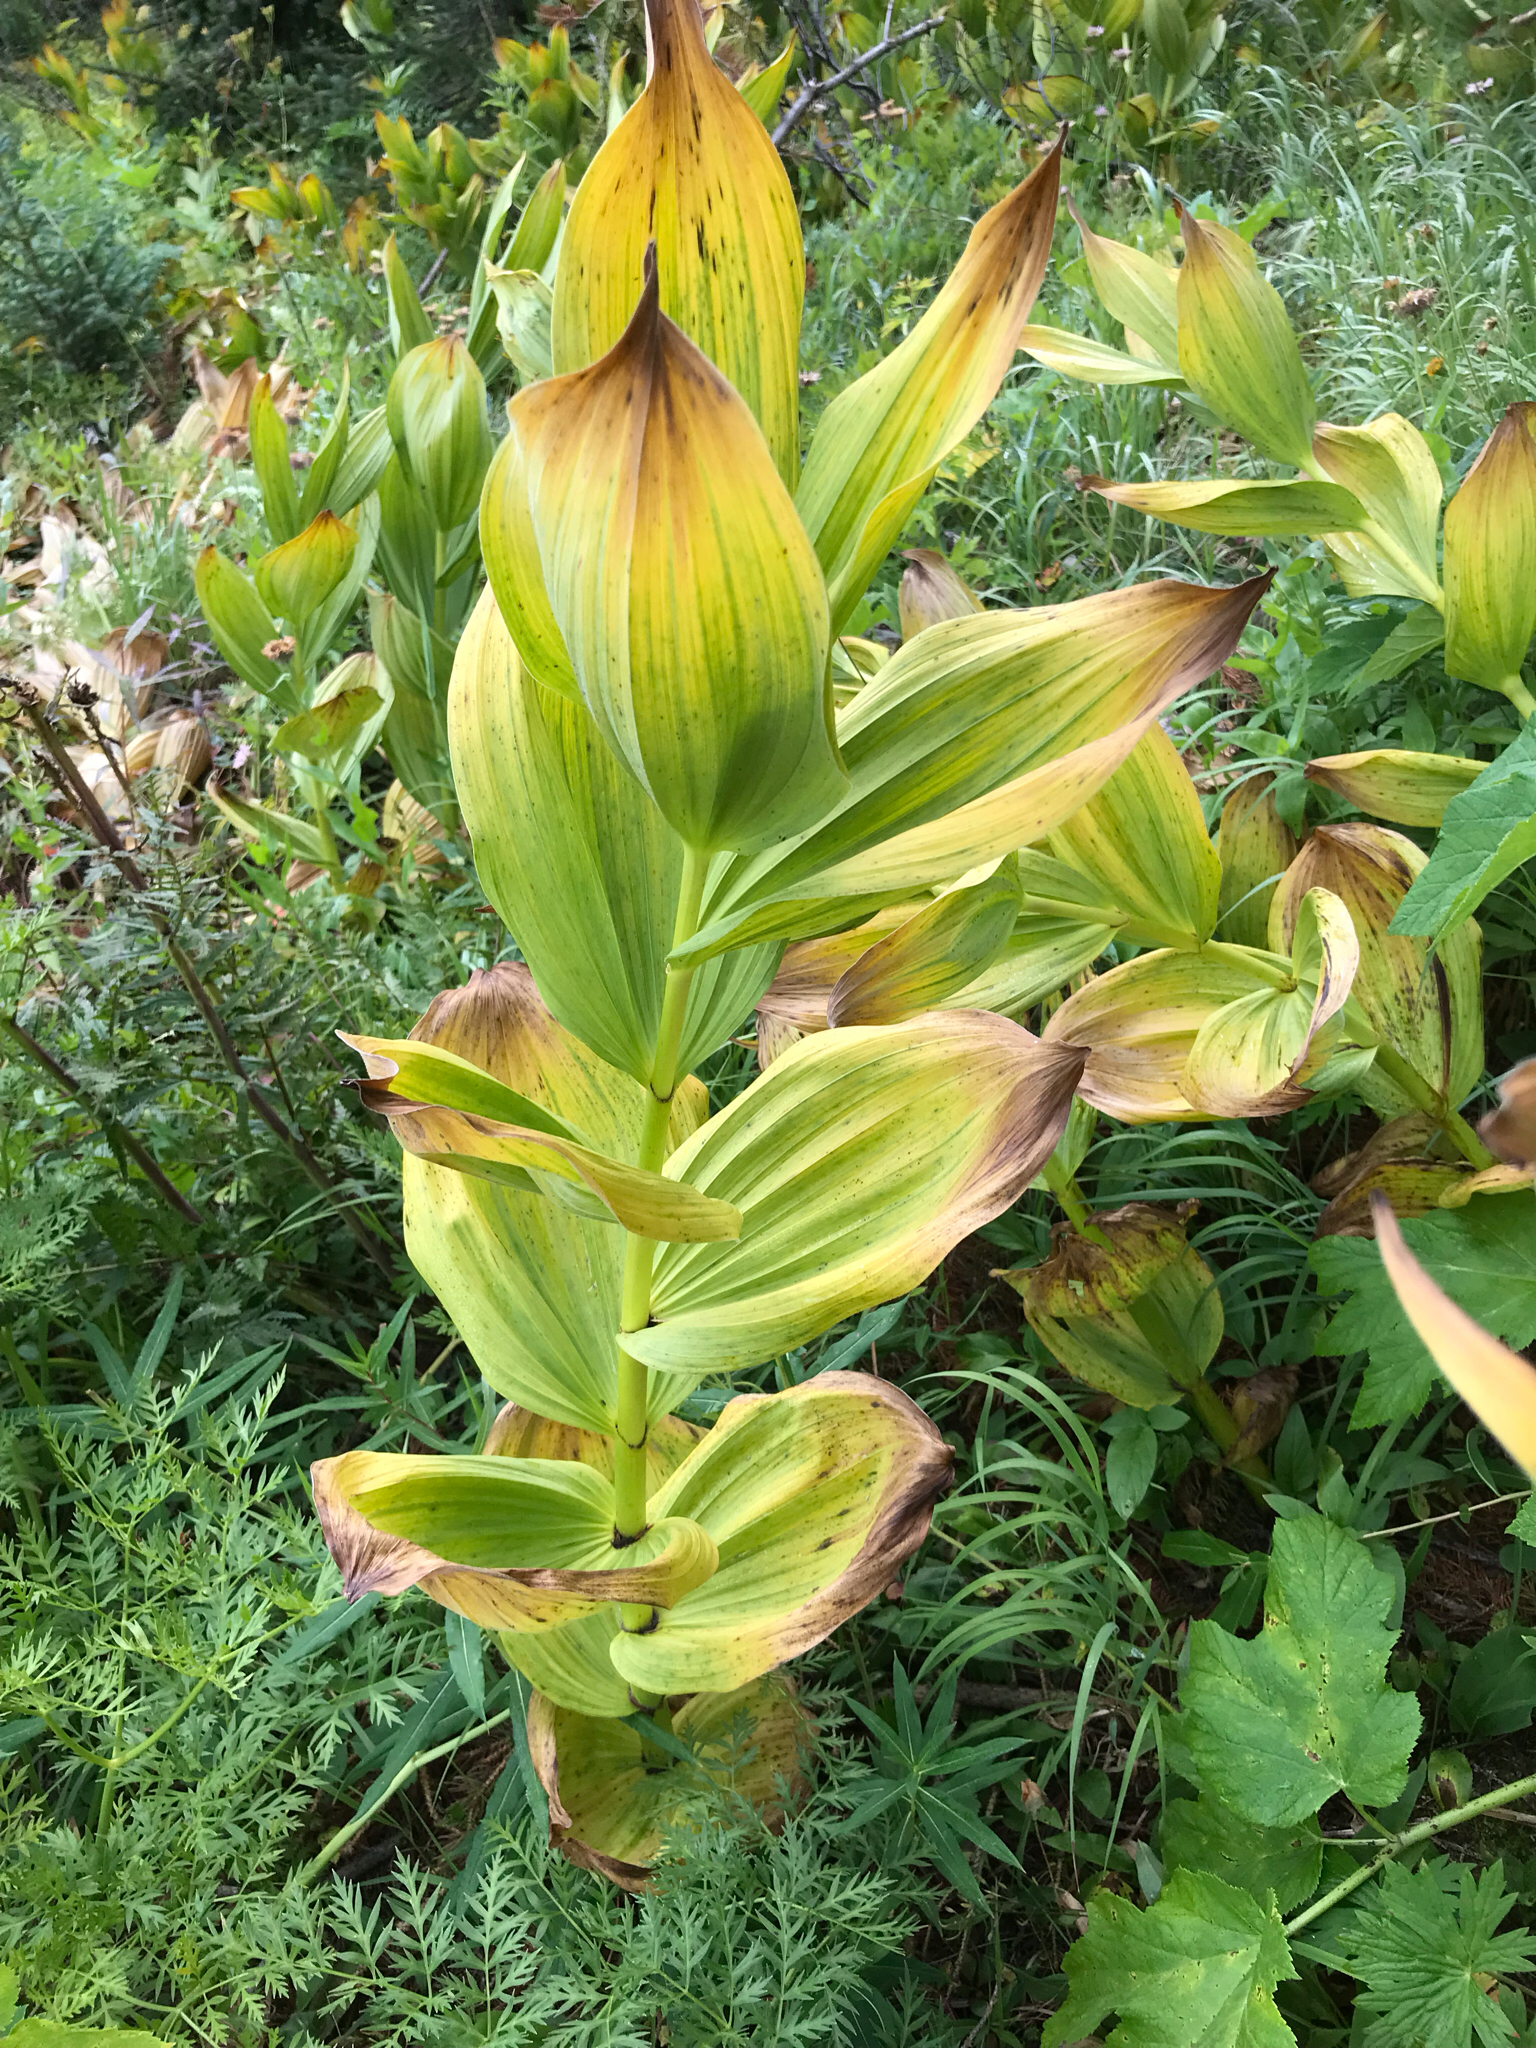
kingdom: Plantae
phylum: Tracheophyta
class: Liliopsida
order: Liliales
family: Melanthiaceae
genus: Veratrum
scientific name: Veratrum californicum
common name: California veratrum
